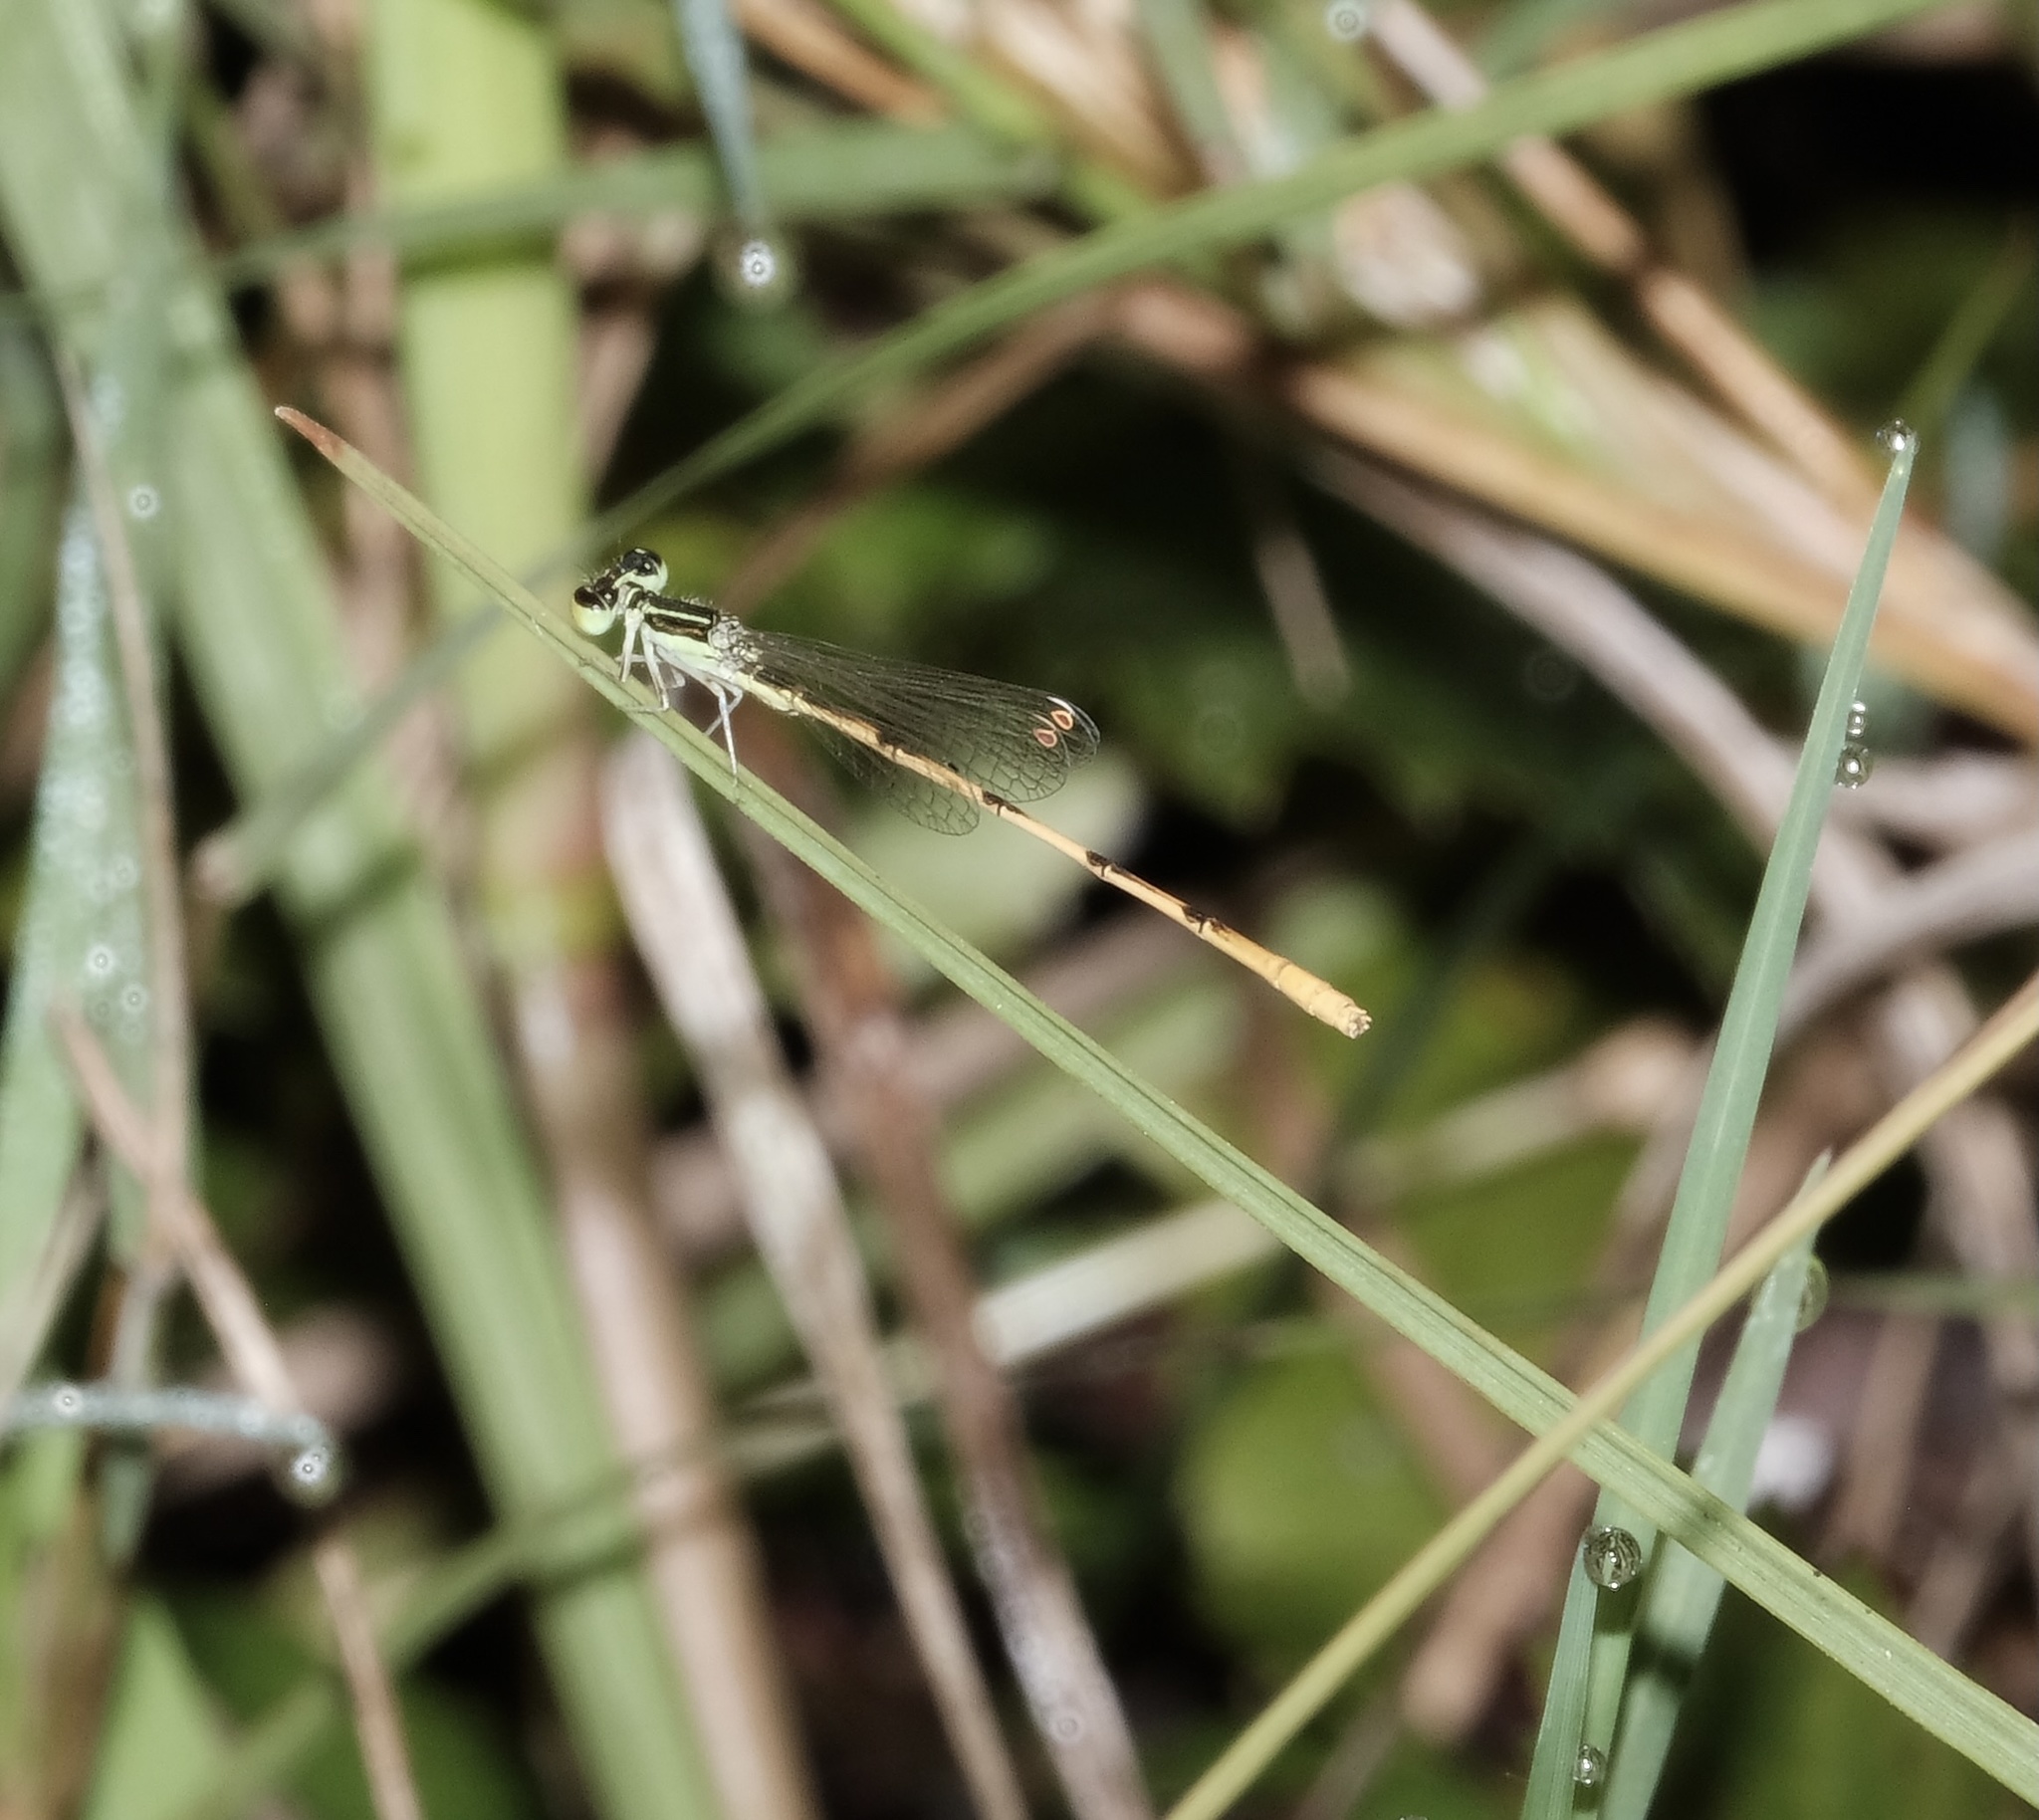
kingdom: Animalia
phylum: Arthropoda
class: Insecta
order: Odonata
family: Coenagrionidae
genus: Ischnura
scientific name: Ischnura hastata
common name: Citrine forktail
